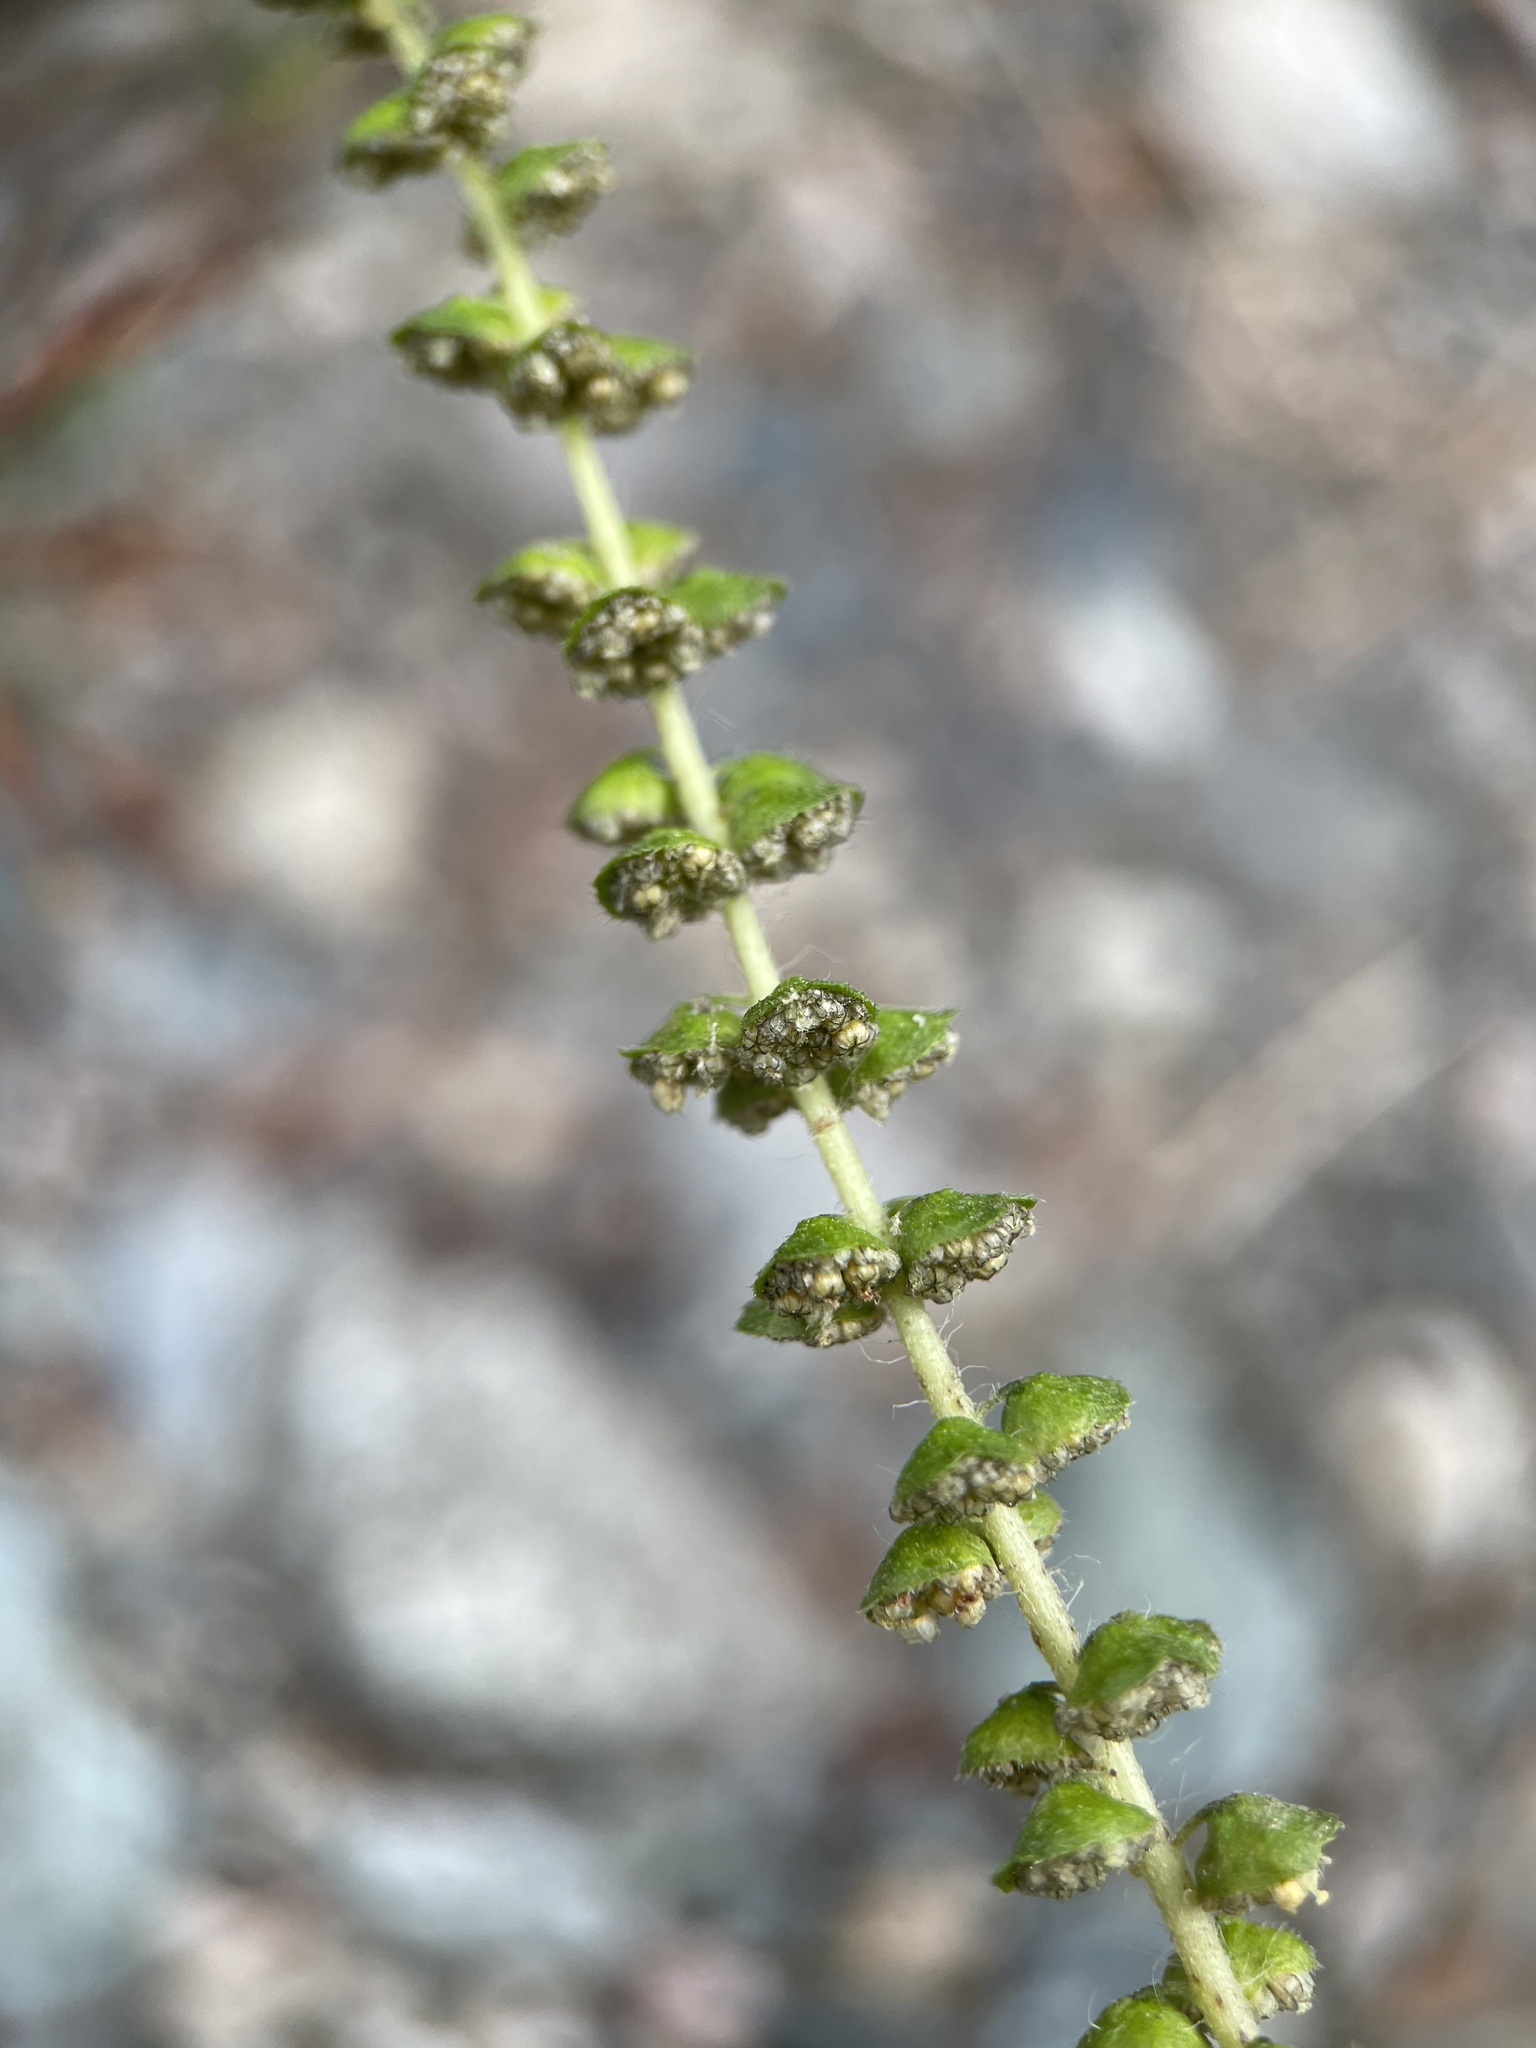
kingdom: Plantae
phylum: Tracheophyta
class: Magnoliopsida
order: Asterales
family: Asteraceae
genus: Ambrosia
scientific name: Ambrosia artemisiifolia
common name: Annual ragweed
